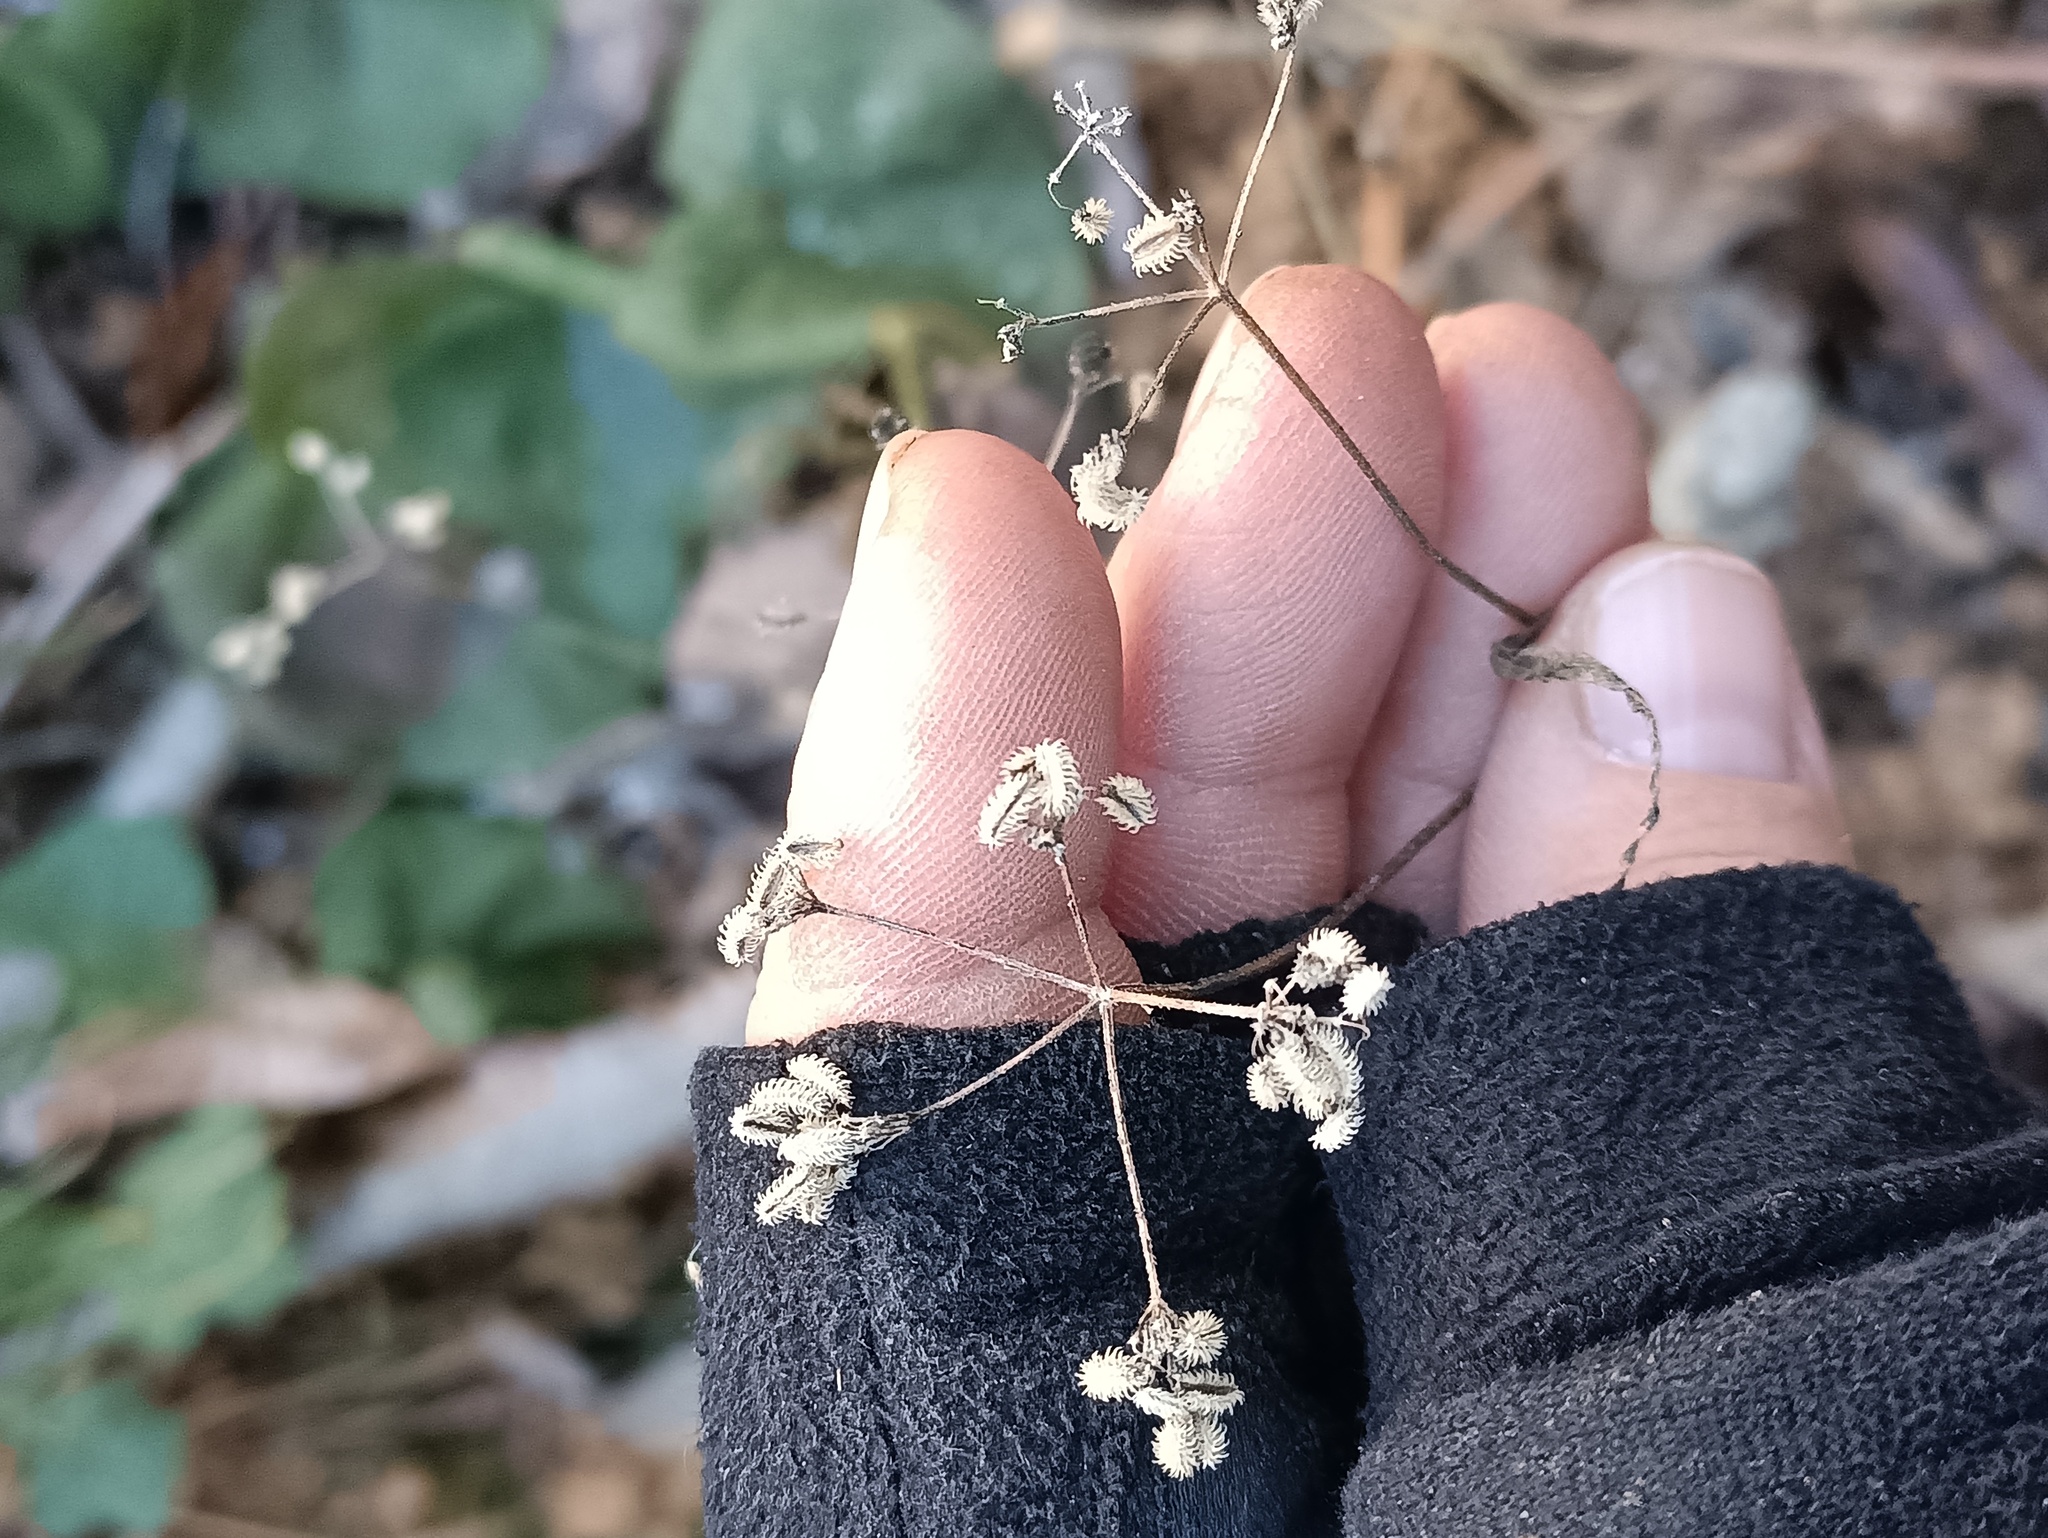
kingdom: Plantae
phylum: Tracheophyta
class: Magnoliopsida
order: Apiales
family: Apiaceae
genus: Torilis
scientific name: Torilis japonica
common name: Upright hedge-parsley
